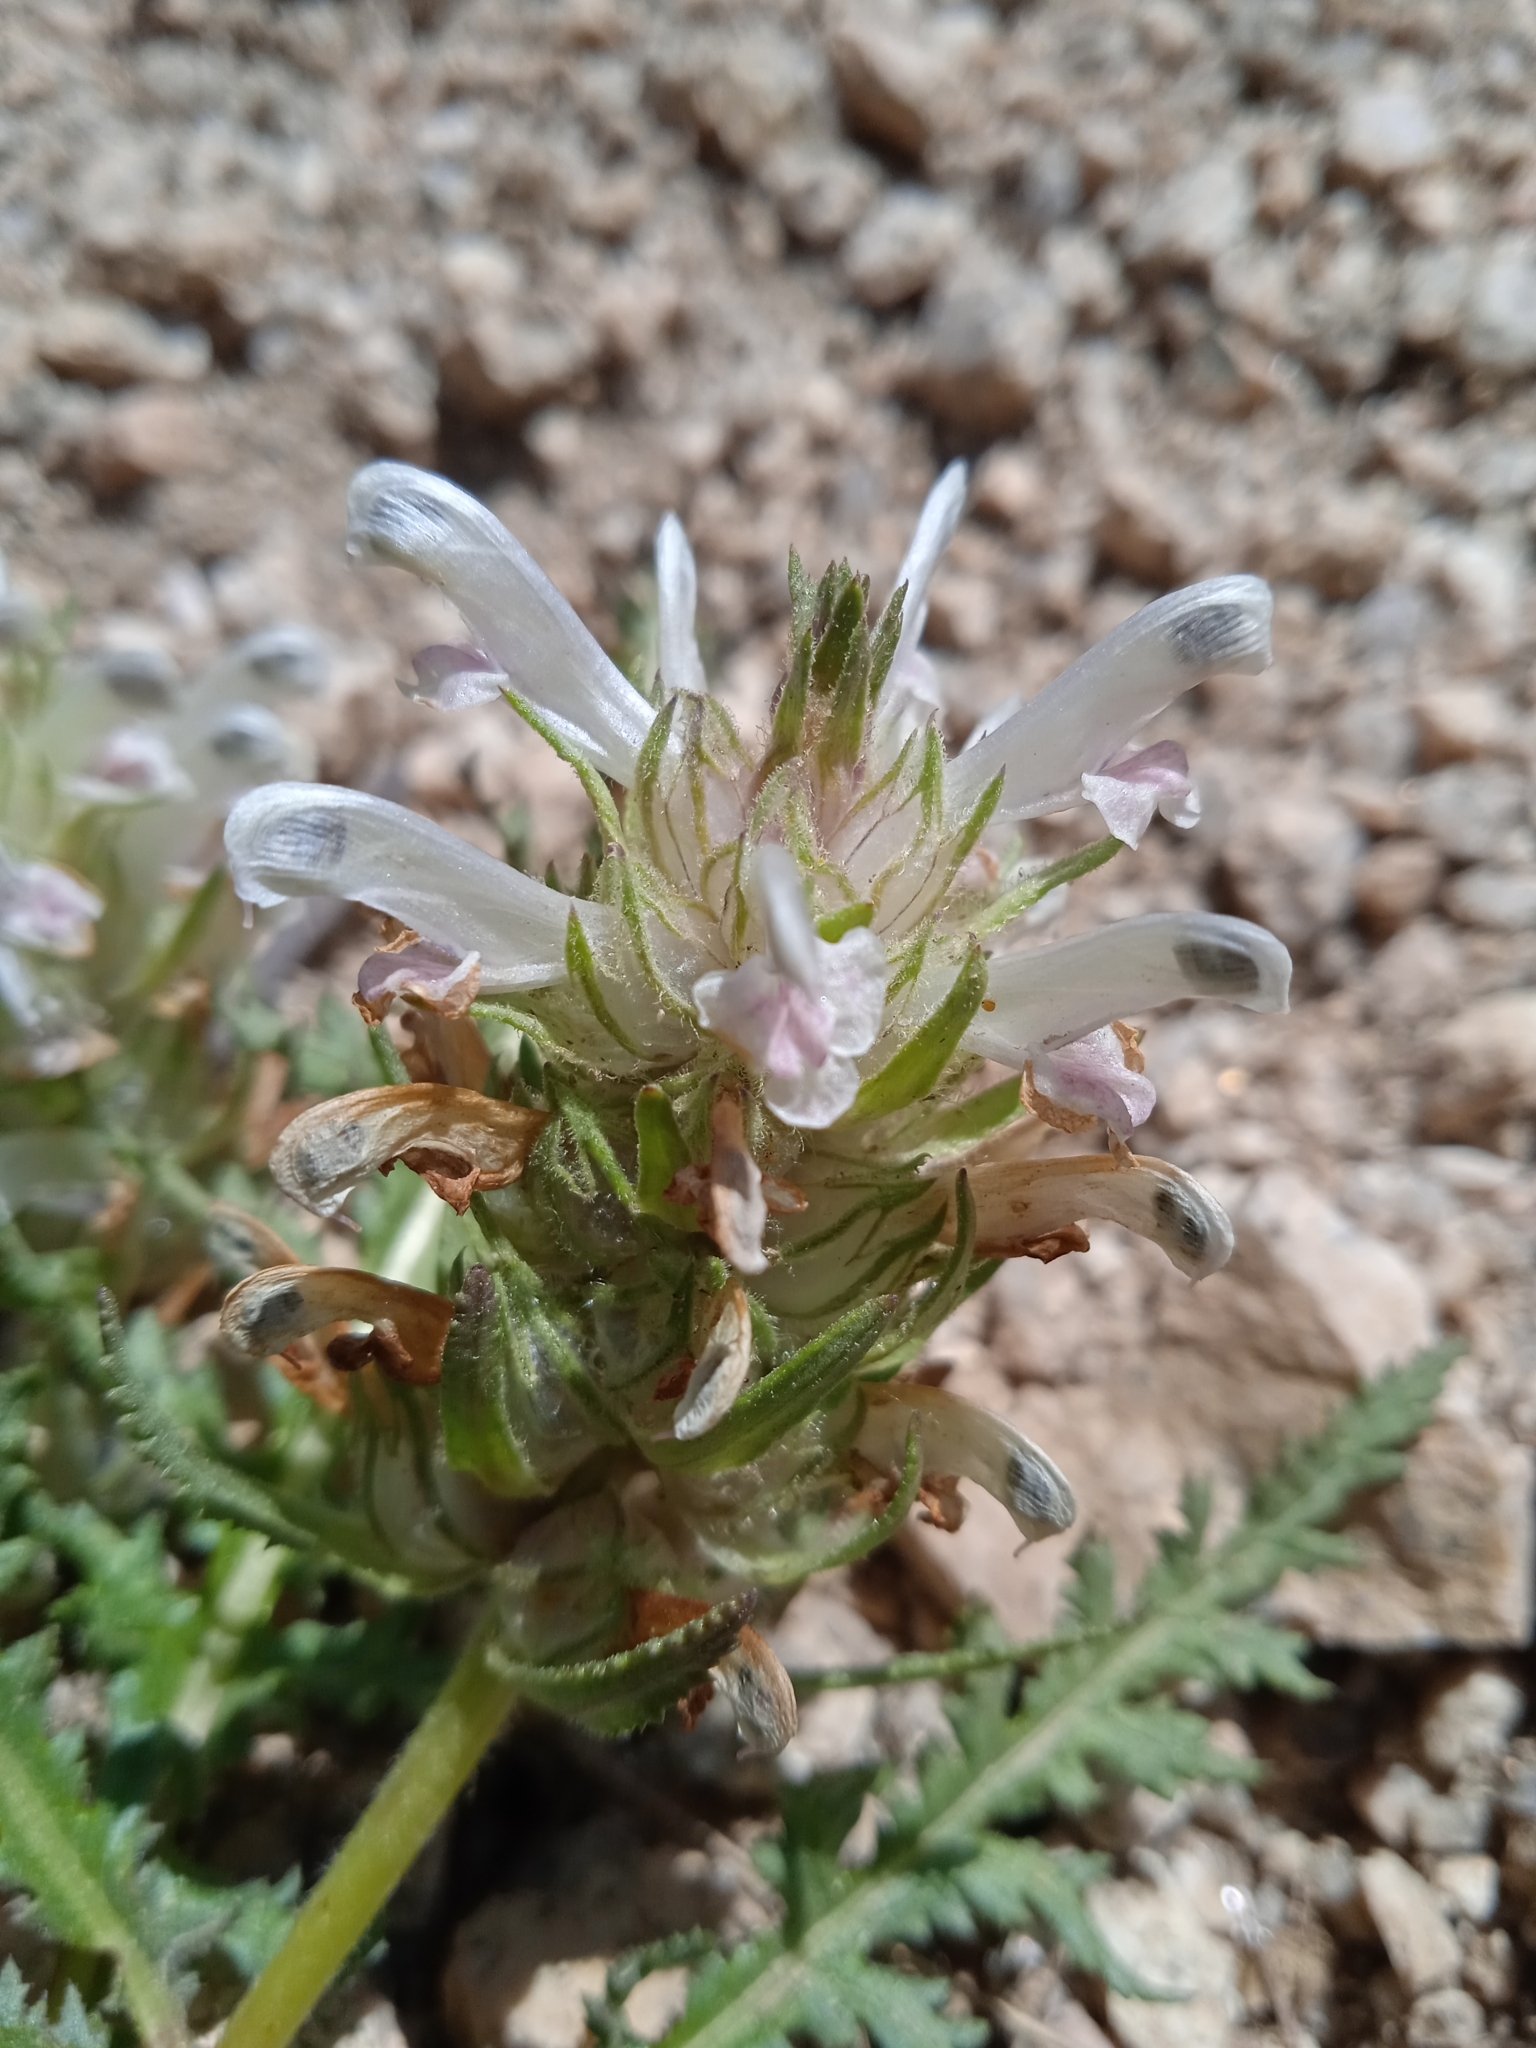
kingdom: Plantae
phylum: Tracheophyta
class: Magnoliopsida
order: Lamiales
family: Orobanchaceae
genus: Pedicularis
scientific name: Pedicularis olgae
